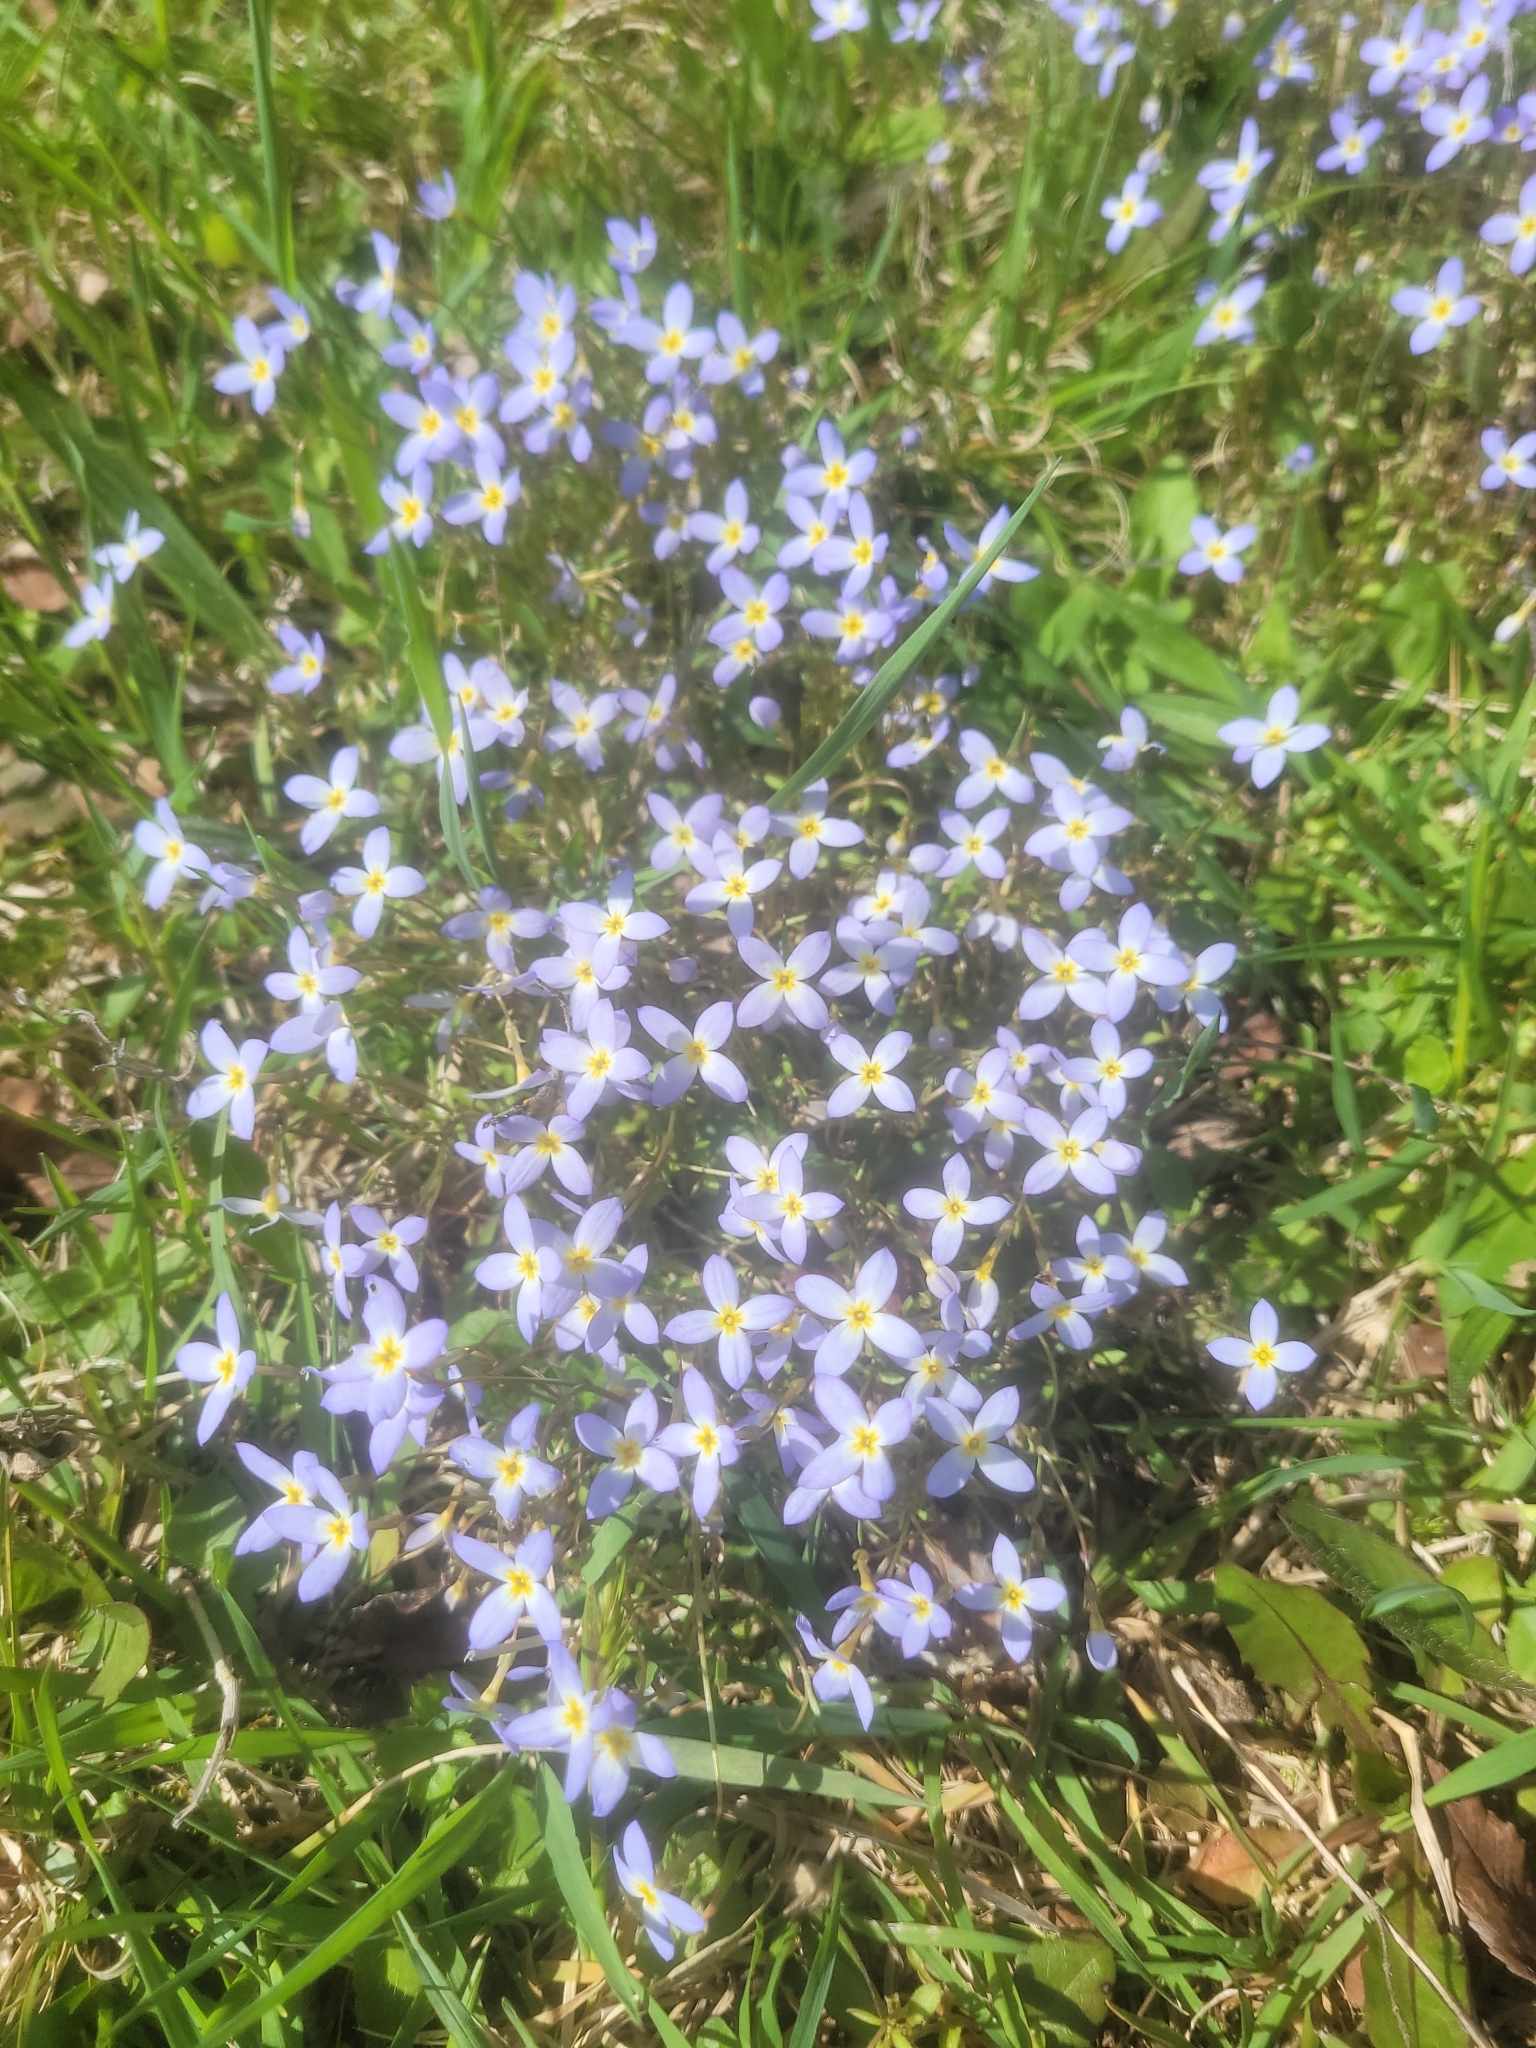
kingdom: Plantae
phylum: Tracheophyta
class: Magnoliopsida
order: Gentianales
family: Rubiaceae
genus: Houstonia
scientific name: Houstonia caerulea
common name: Bluets
